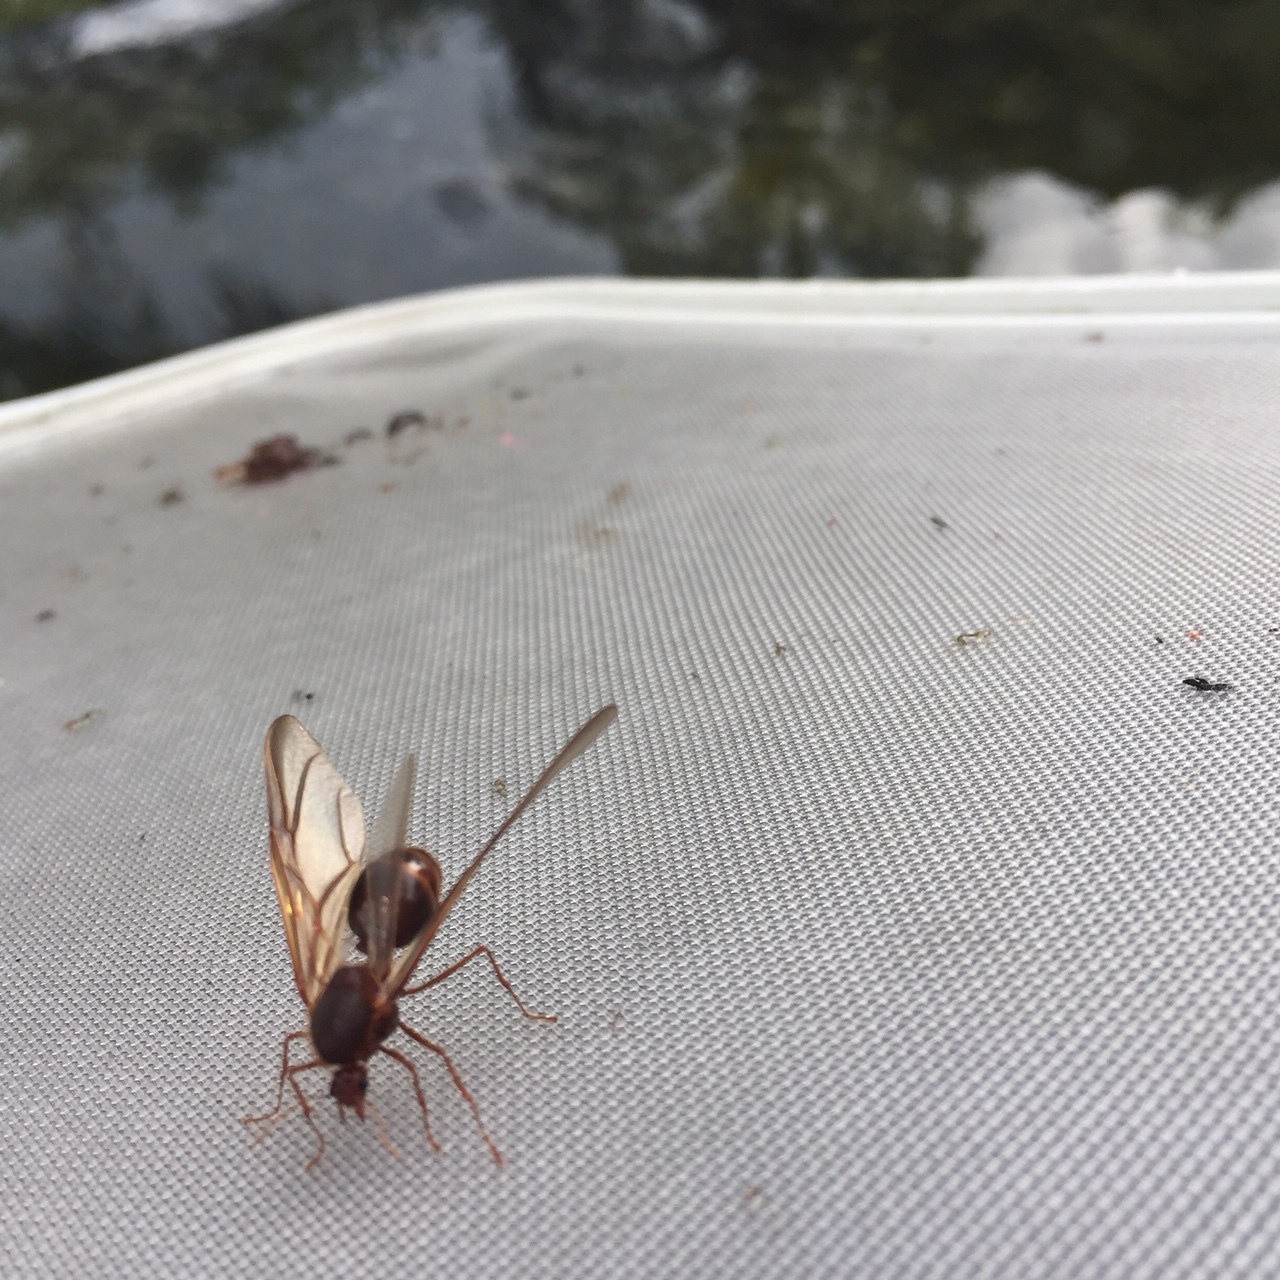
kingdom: Animalia
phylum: Arthropoda
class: Insecta
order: Hymenoptera
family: Formicidae
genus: Atta
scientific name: Atta mexicana
